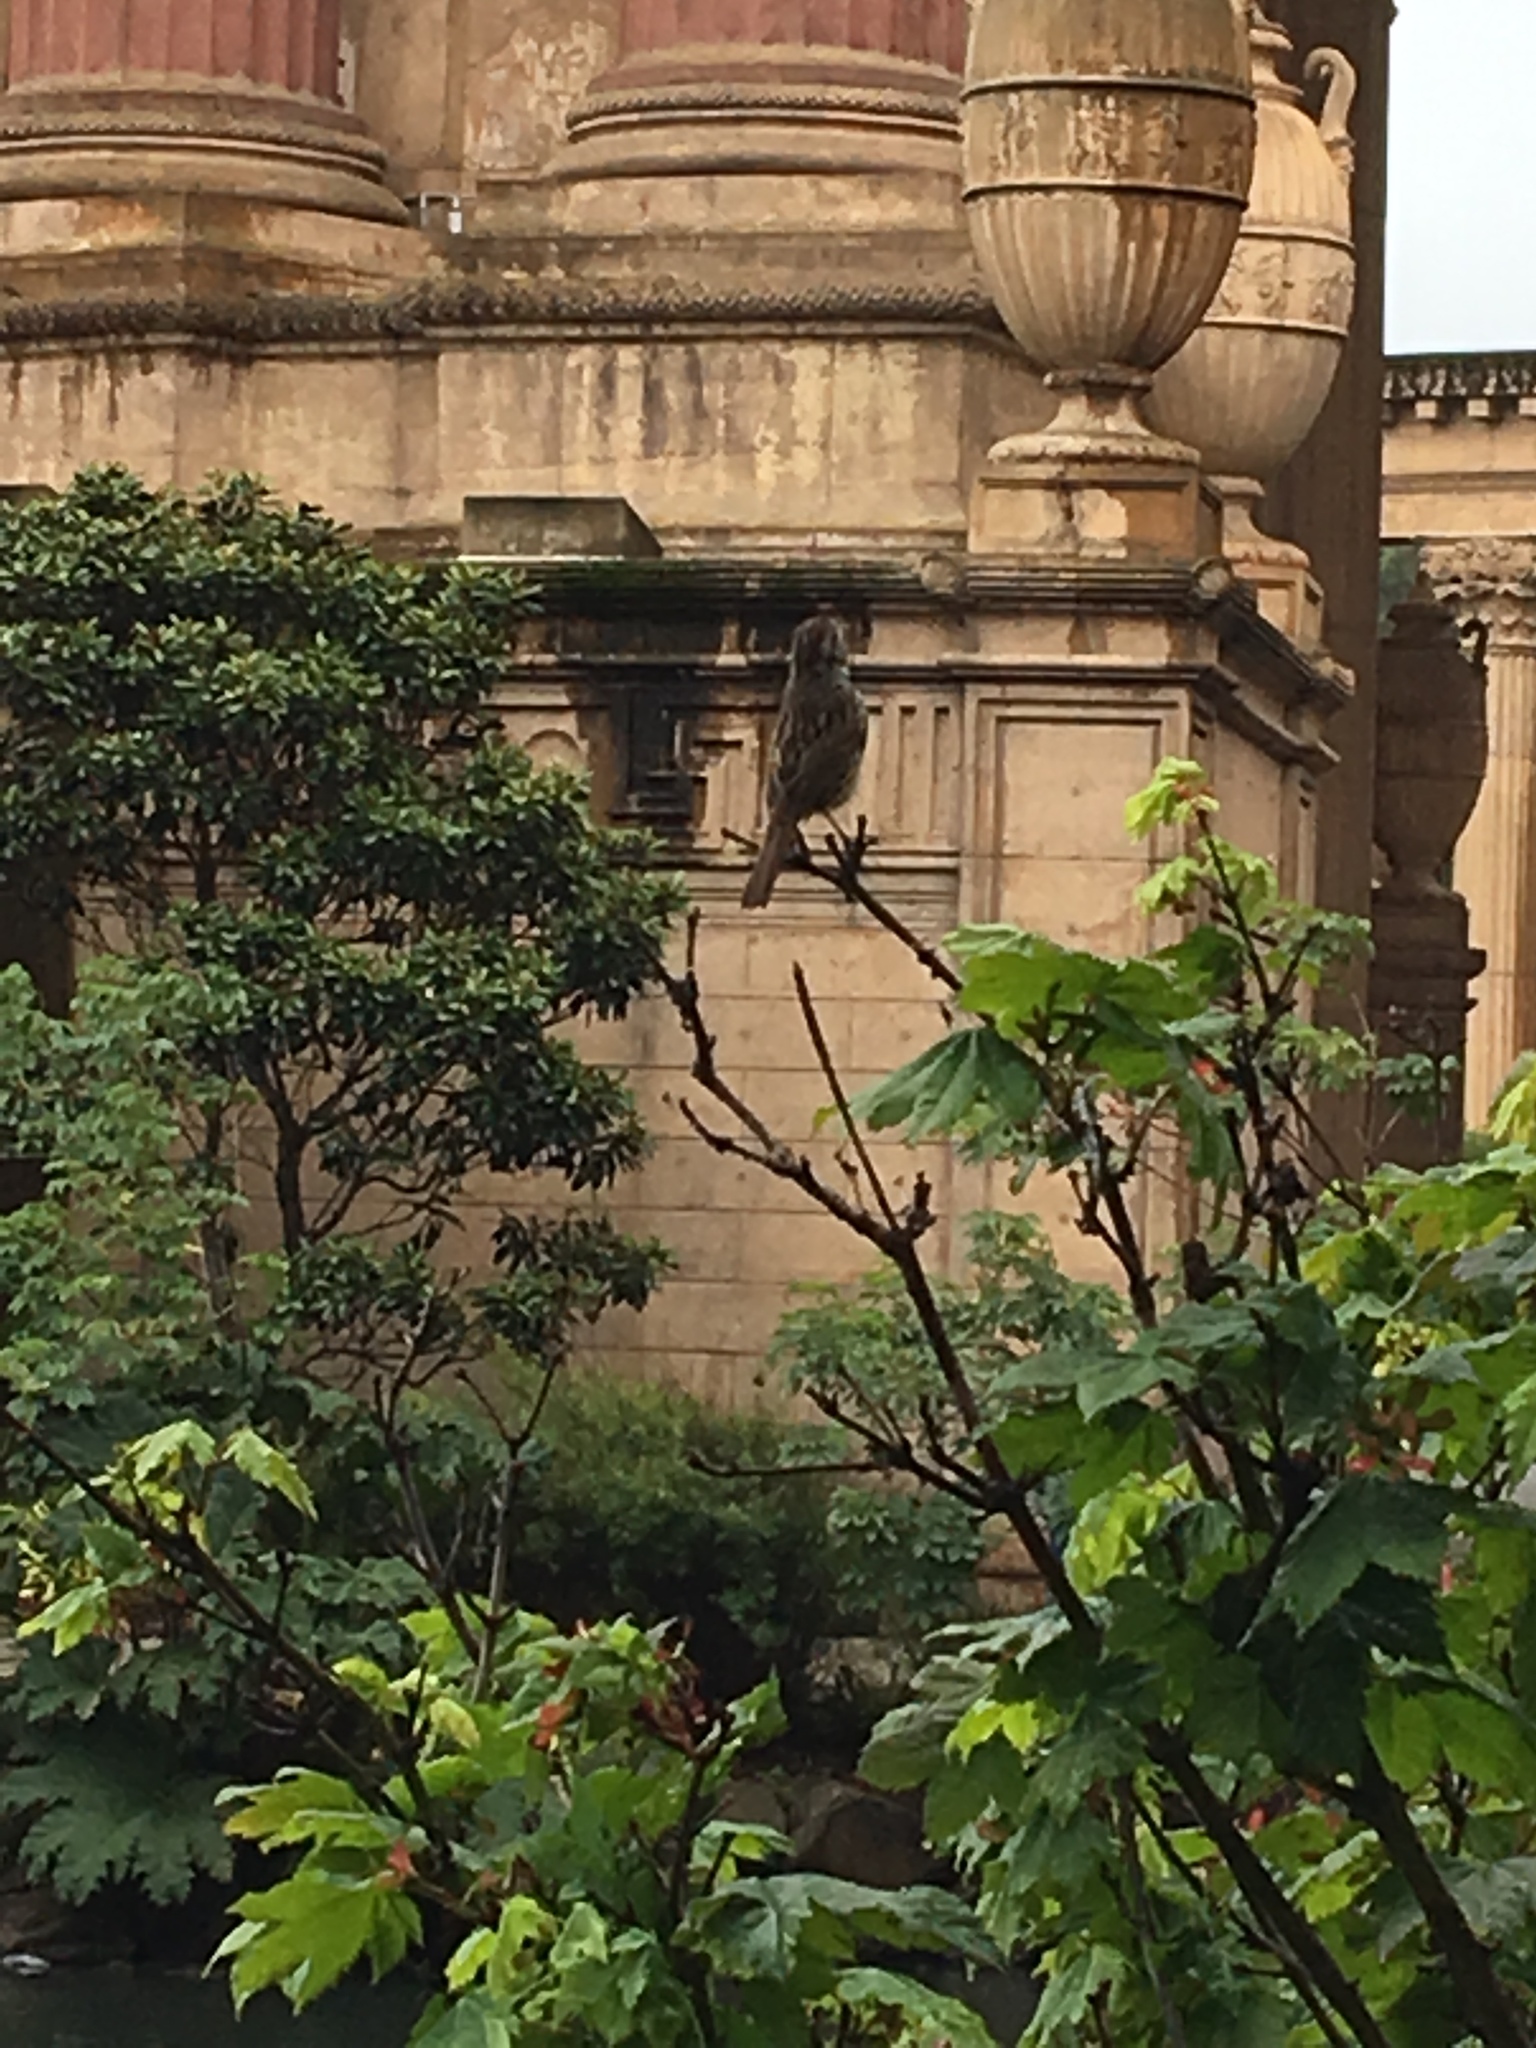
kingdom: Animalia
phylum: Chordata
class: Aves
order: Passeriformes
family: Passerellidae
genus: Melospiza
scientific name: Melospiza melodia
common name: Song sparrow
